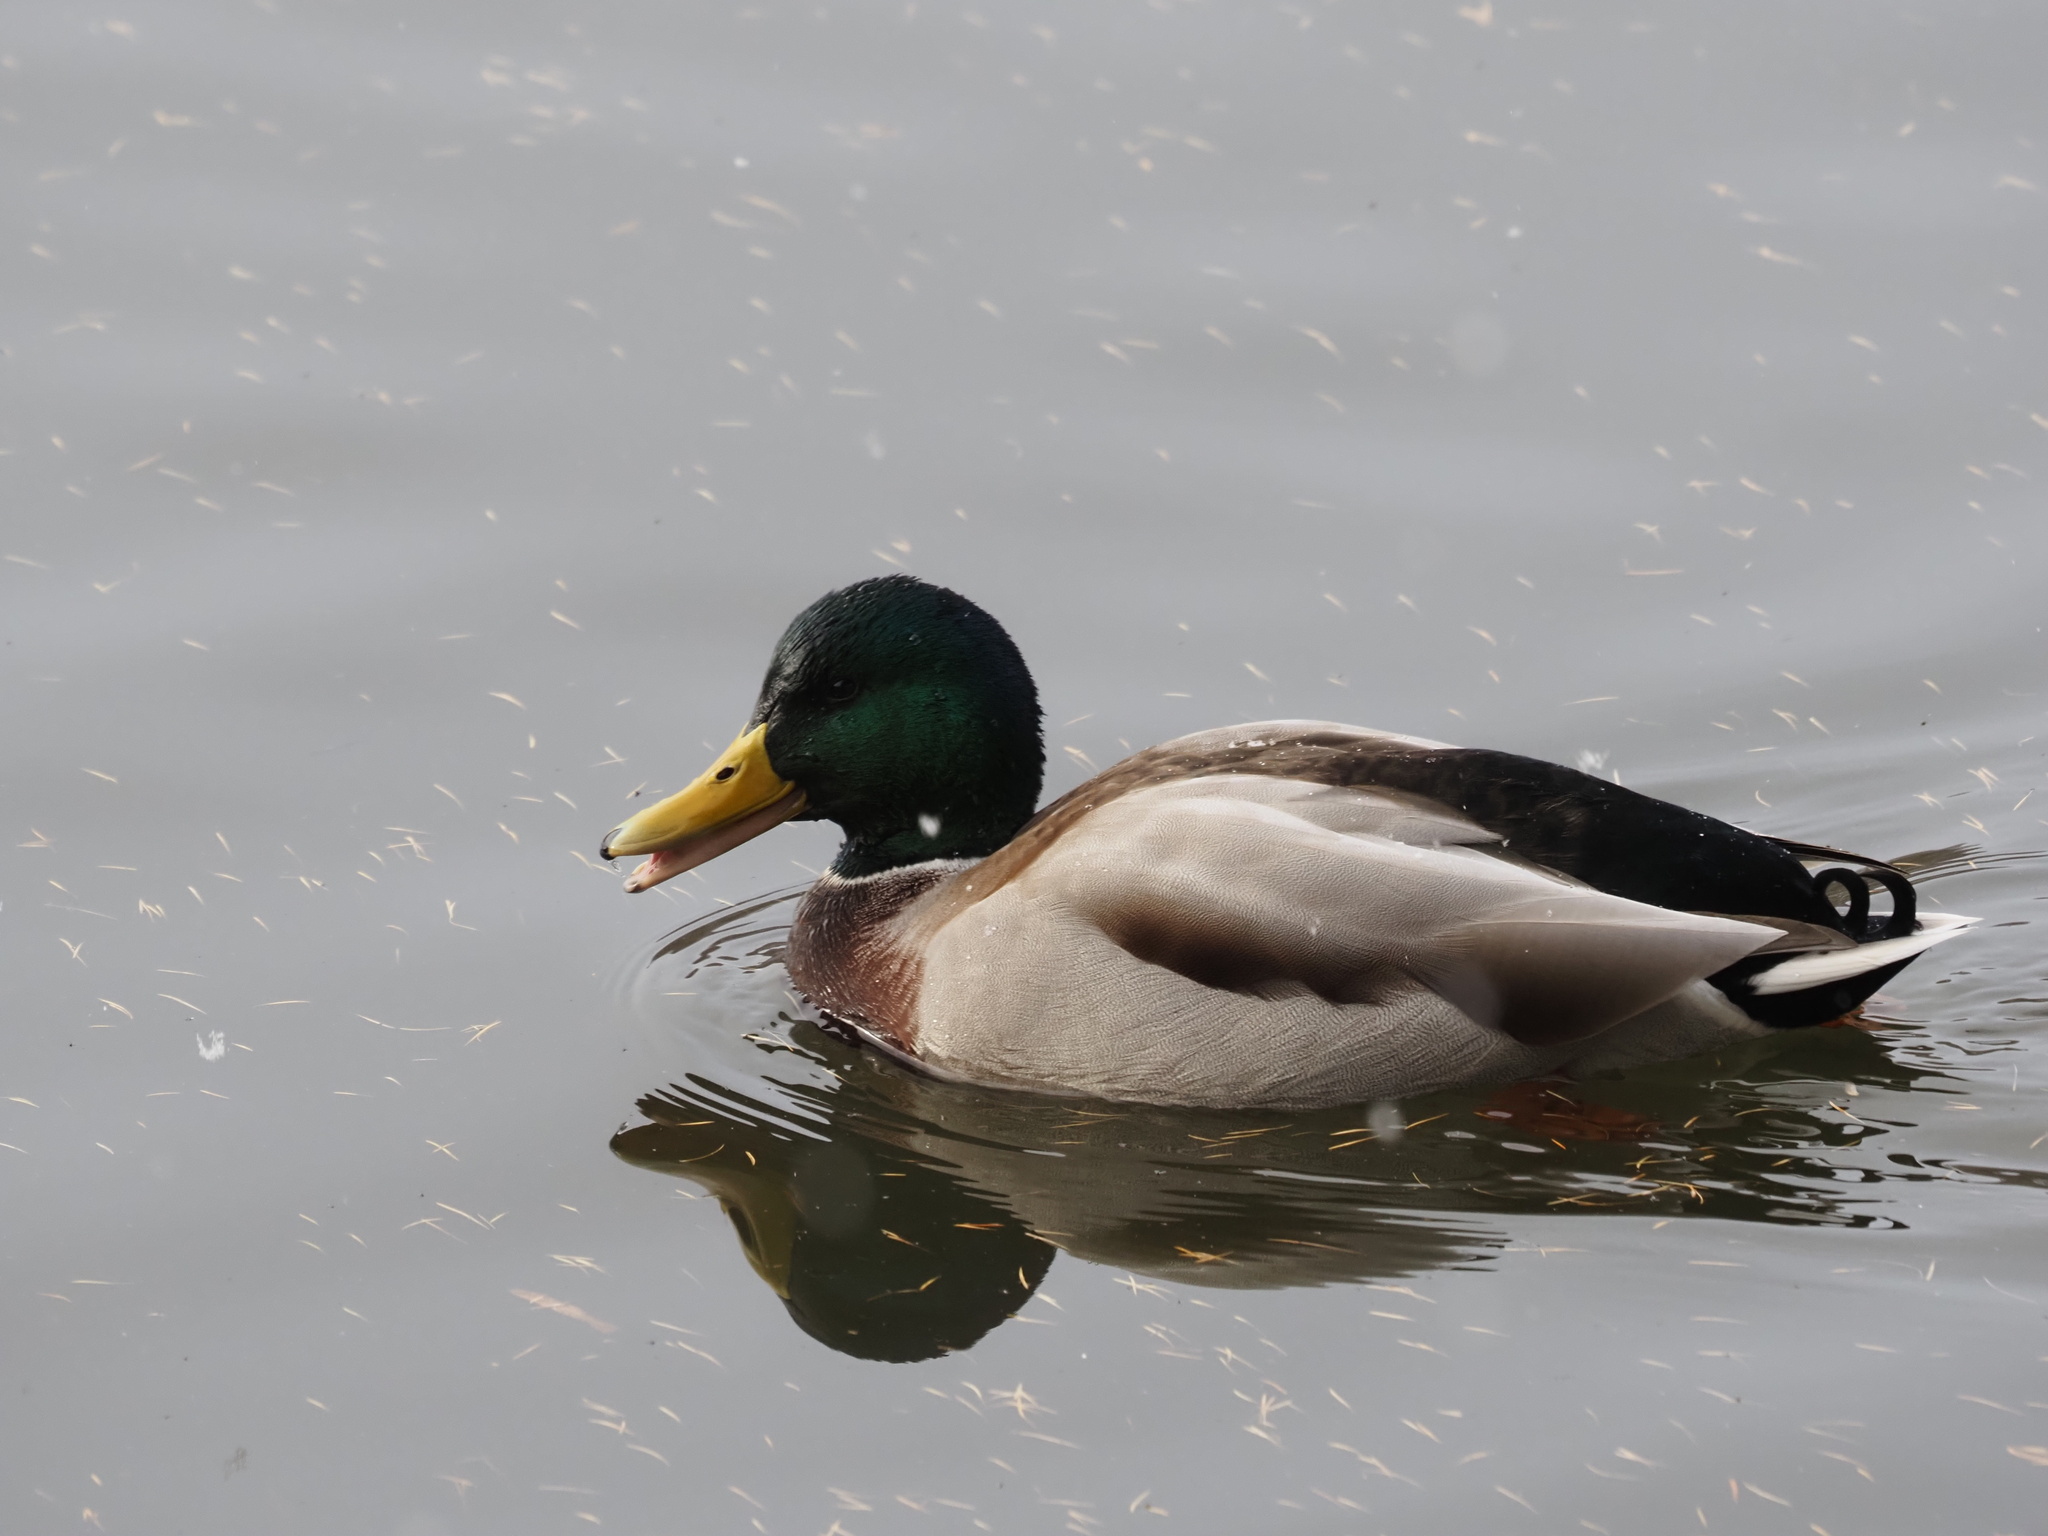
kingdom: Animalia
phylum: Chordata
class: Aves
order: Anseriformes
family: Anatidae
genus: Anas
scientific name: Anas platyrhynchos
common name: Mallard
